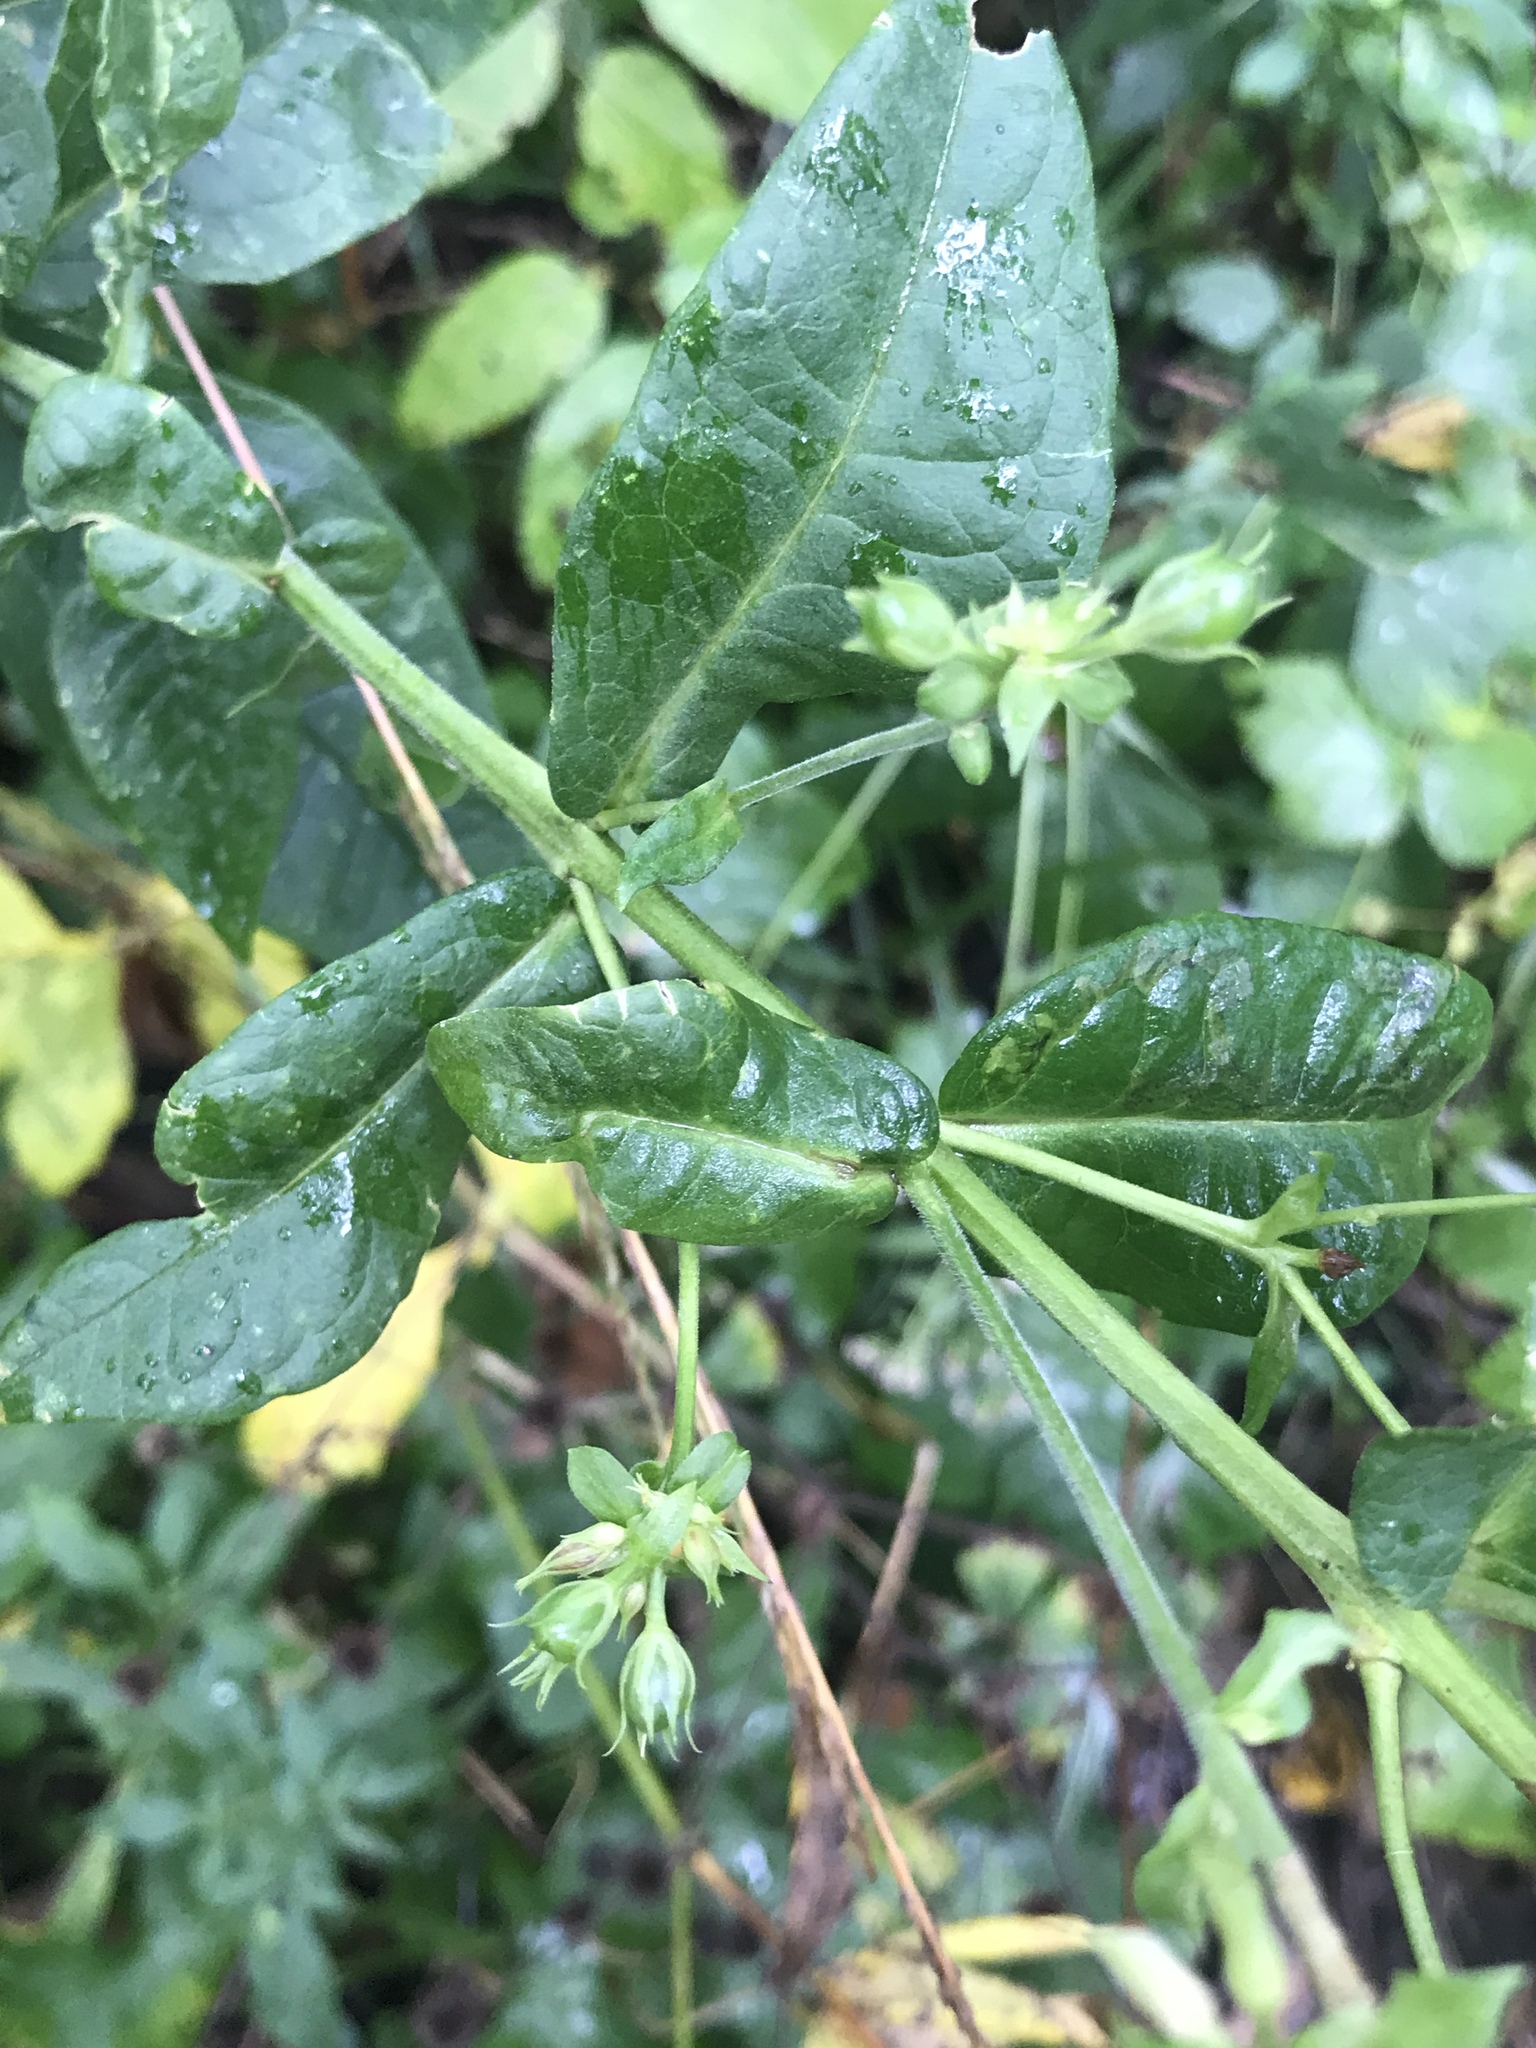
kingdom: Plantae
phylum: Tracheophyta
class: Magnoliopsida
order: Ericales
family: Polemoniaceae
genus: Phlox
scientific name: Phlox paniculata
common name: Fall phlox
